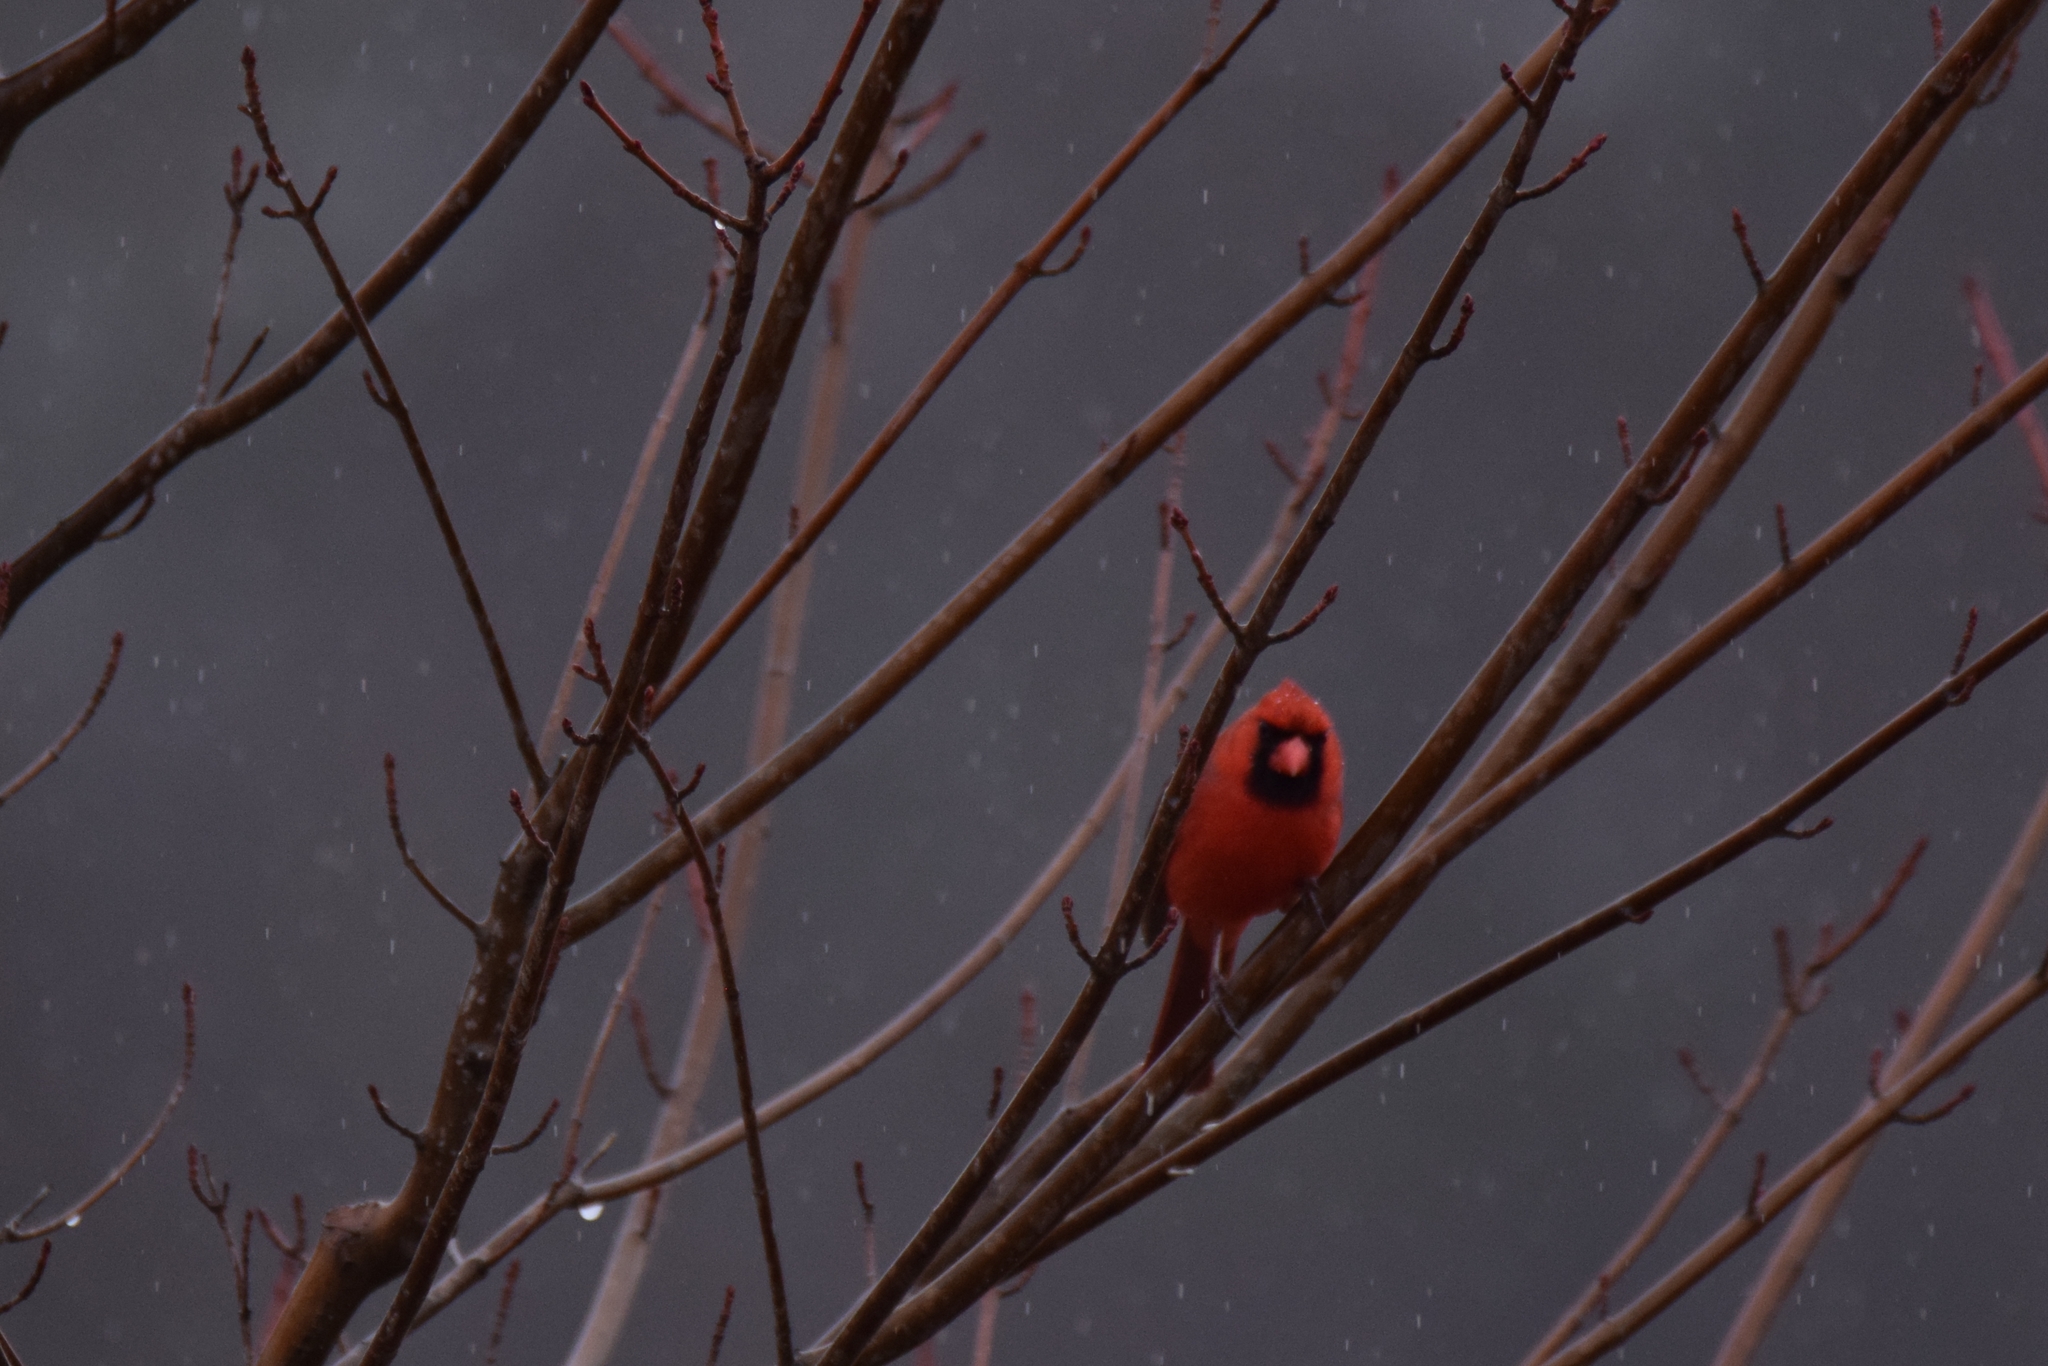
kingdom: Animalia
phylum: Chordata
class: Aves
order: Passeriformes
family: Cardinalidae
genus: Cardinalis
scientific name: Cardinalis cardinalis
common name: Northern cardinal
